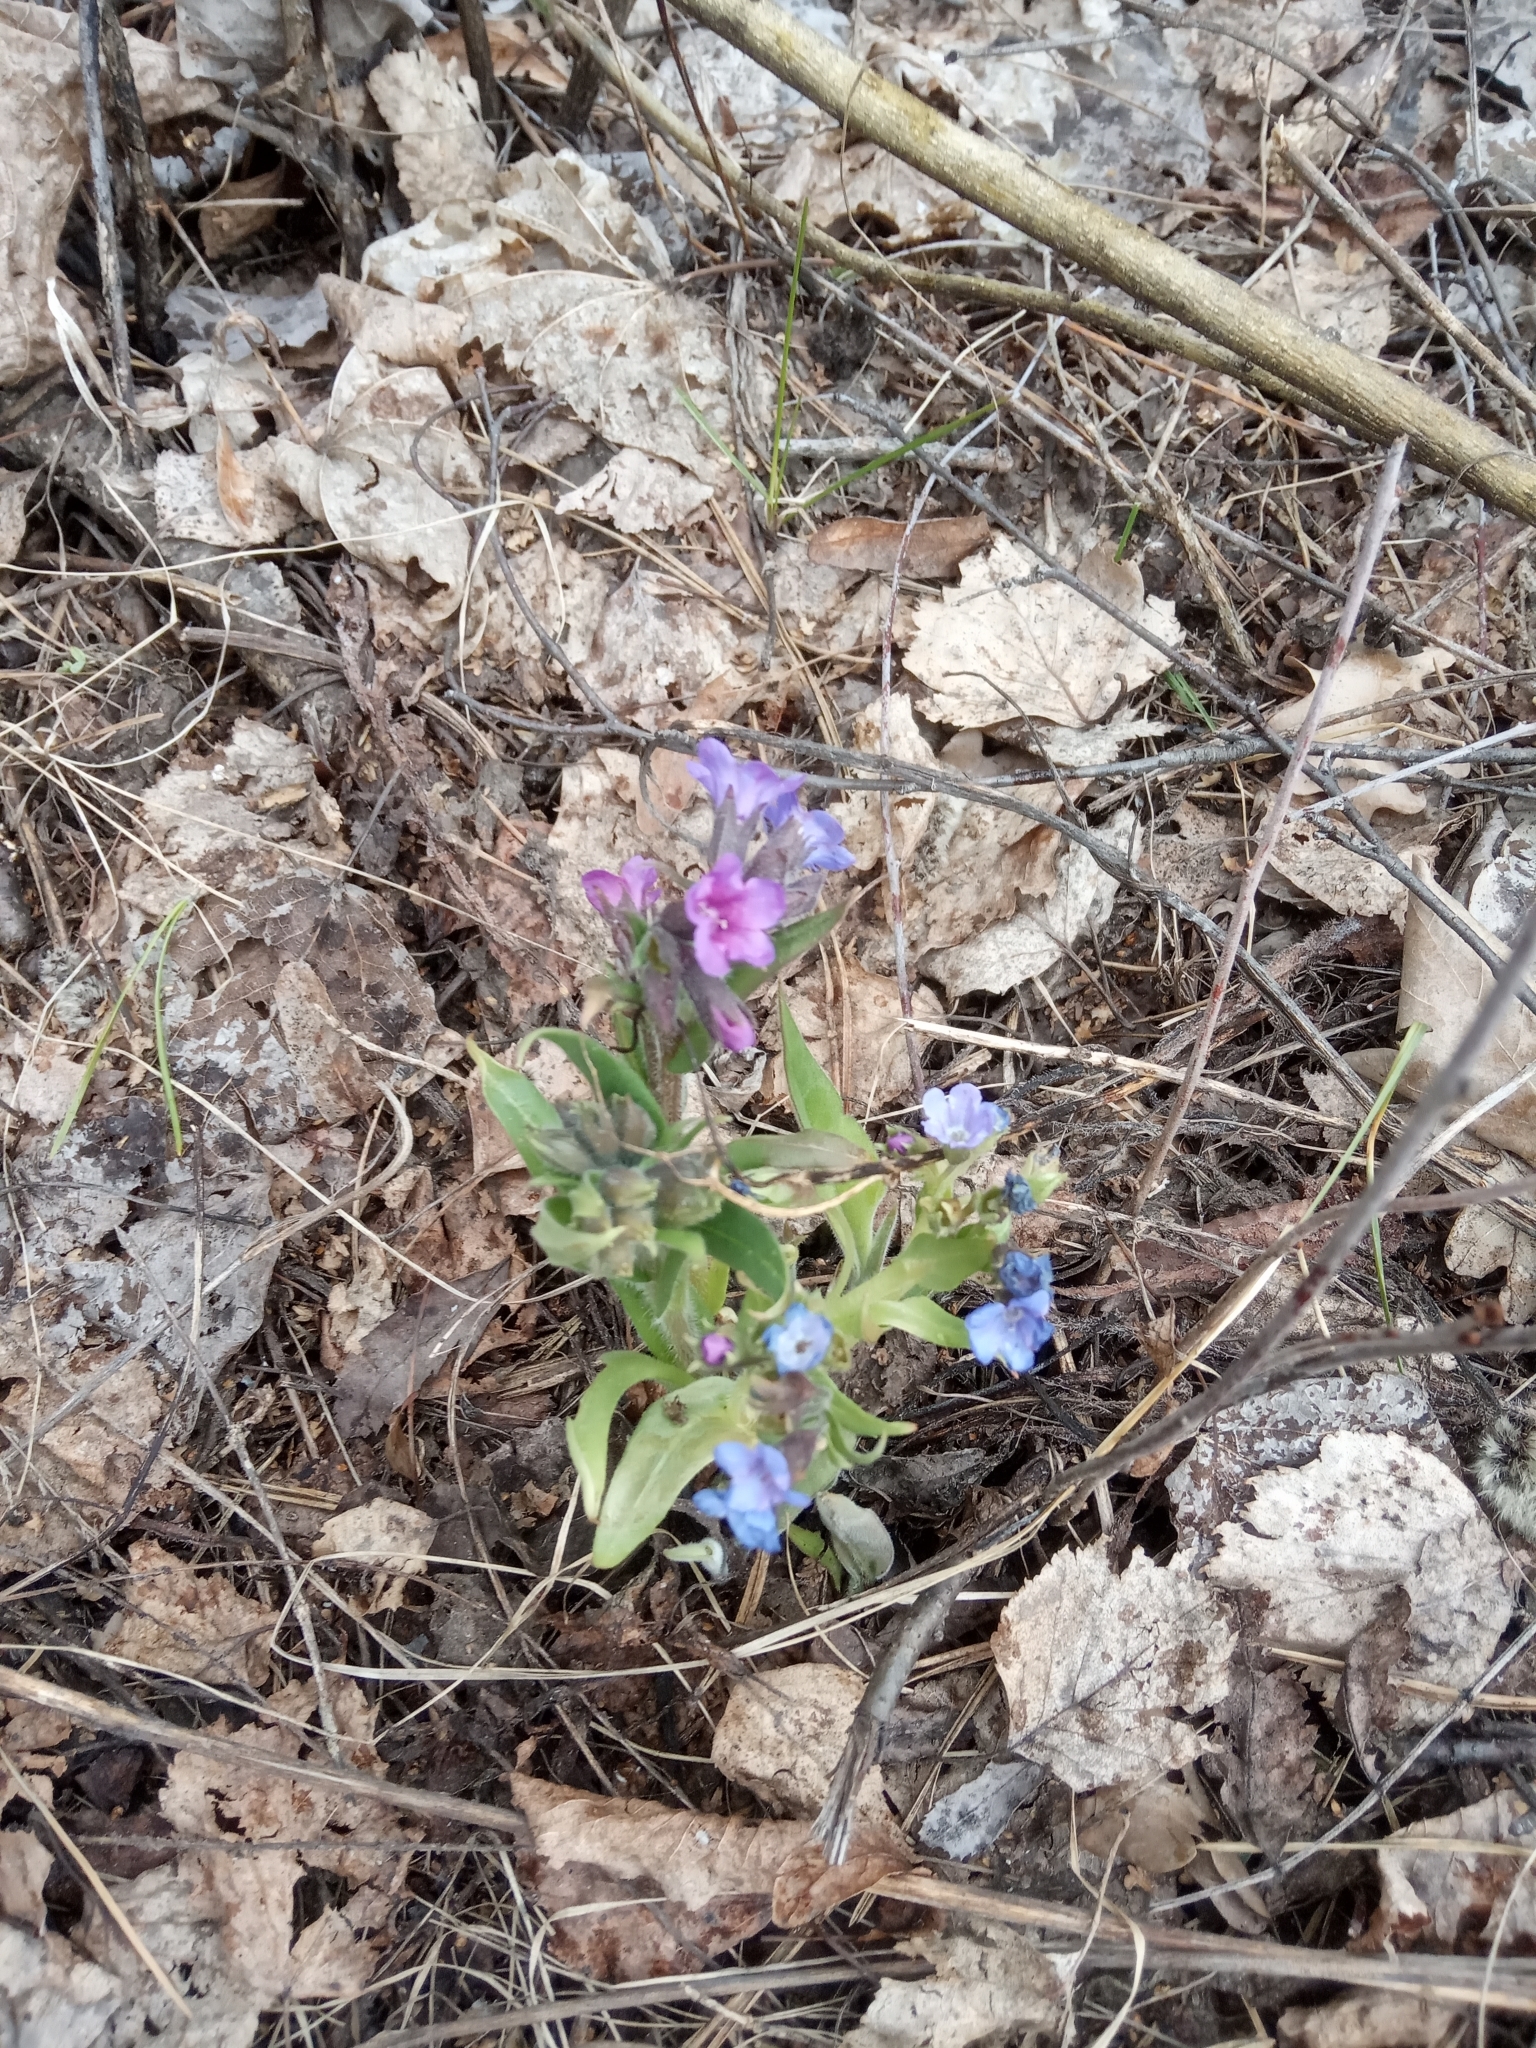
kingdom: Plantae
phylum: Tracheophyta
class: Magnoliopsida
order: Boraginales
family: Boraginaceae
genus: Pulmonaria
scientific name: Pulmonaria obscura
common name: Suffolk lungwort
